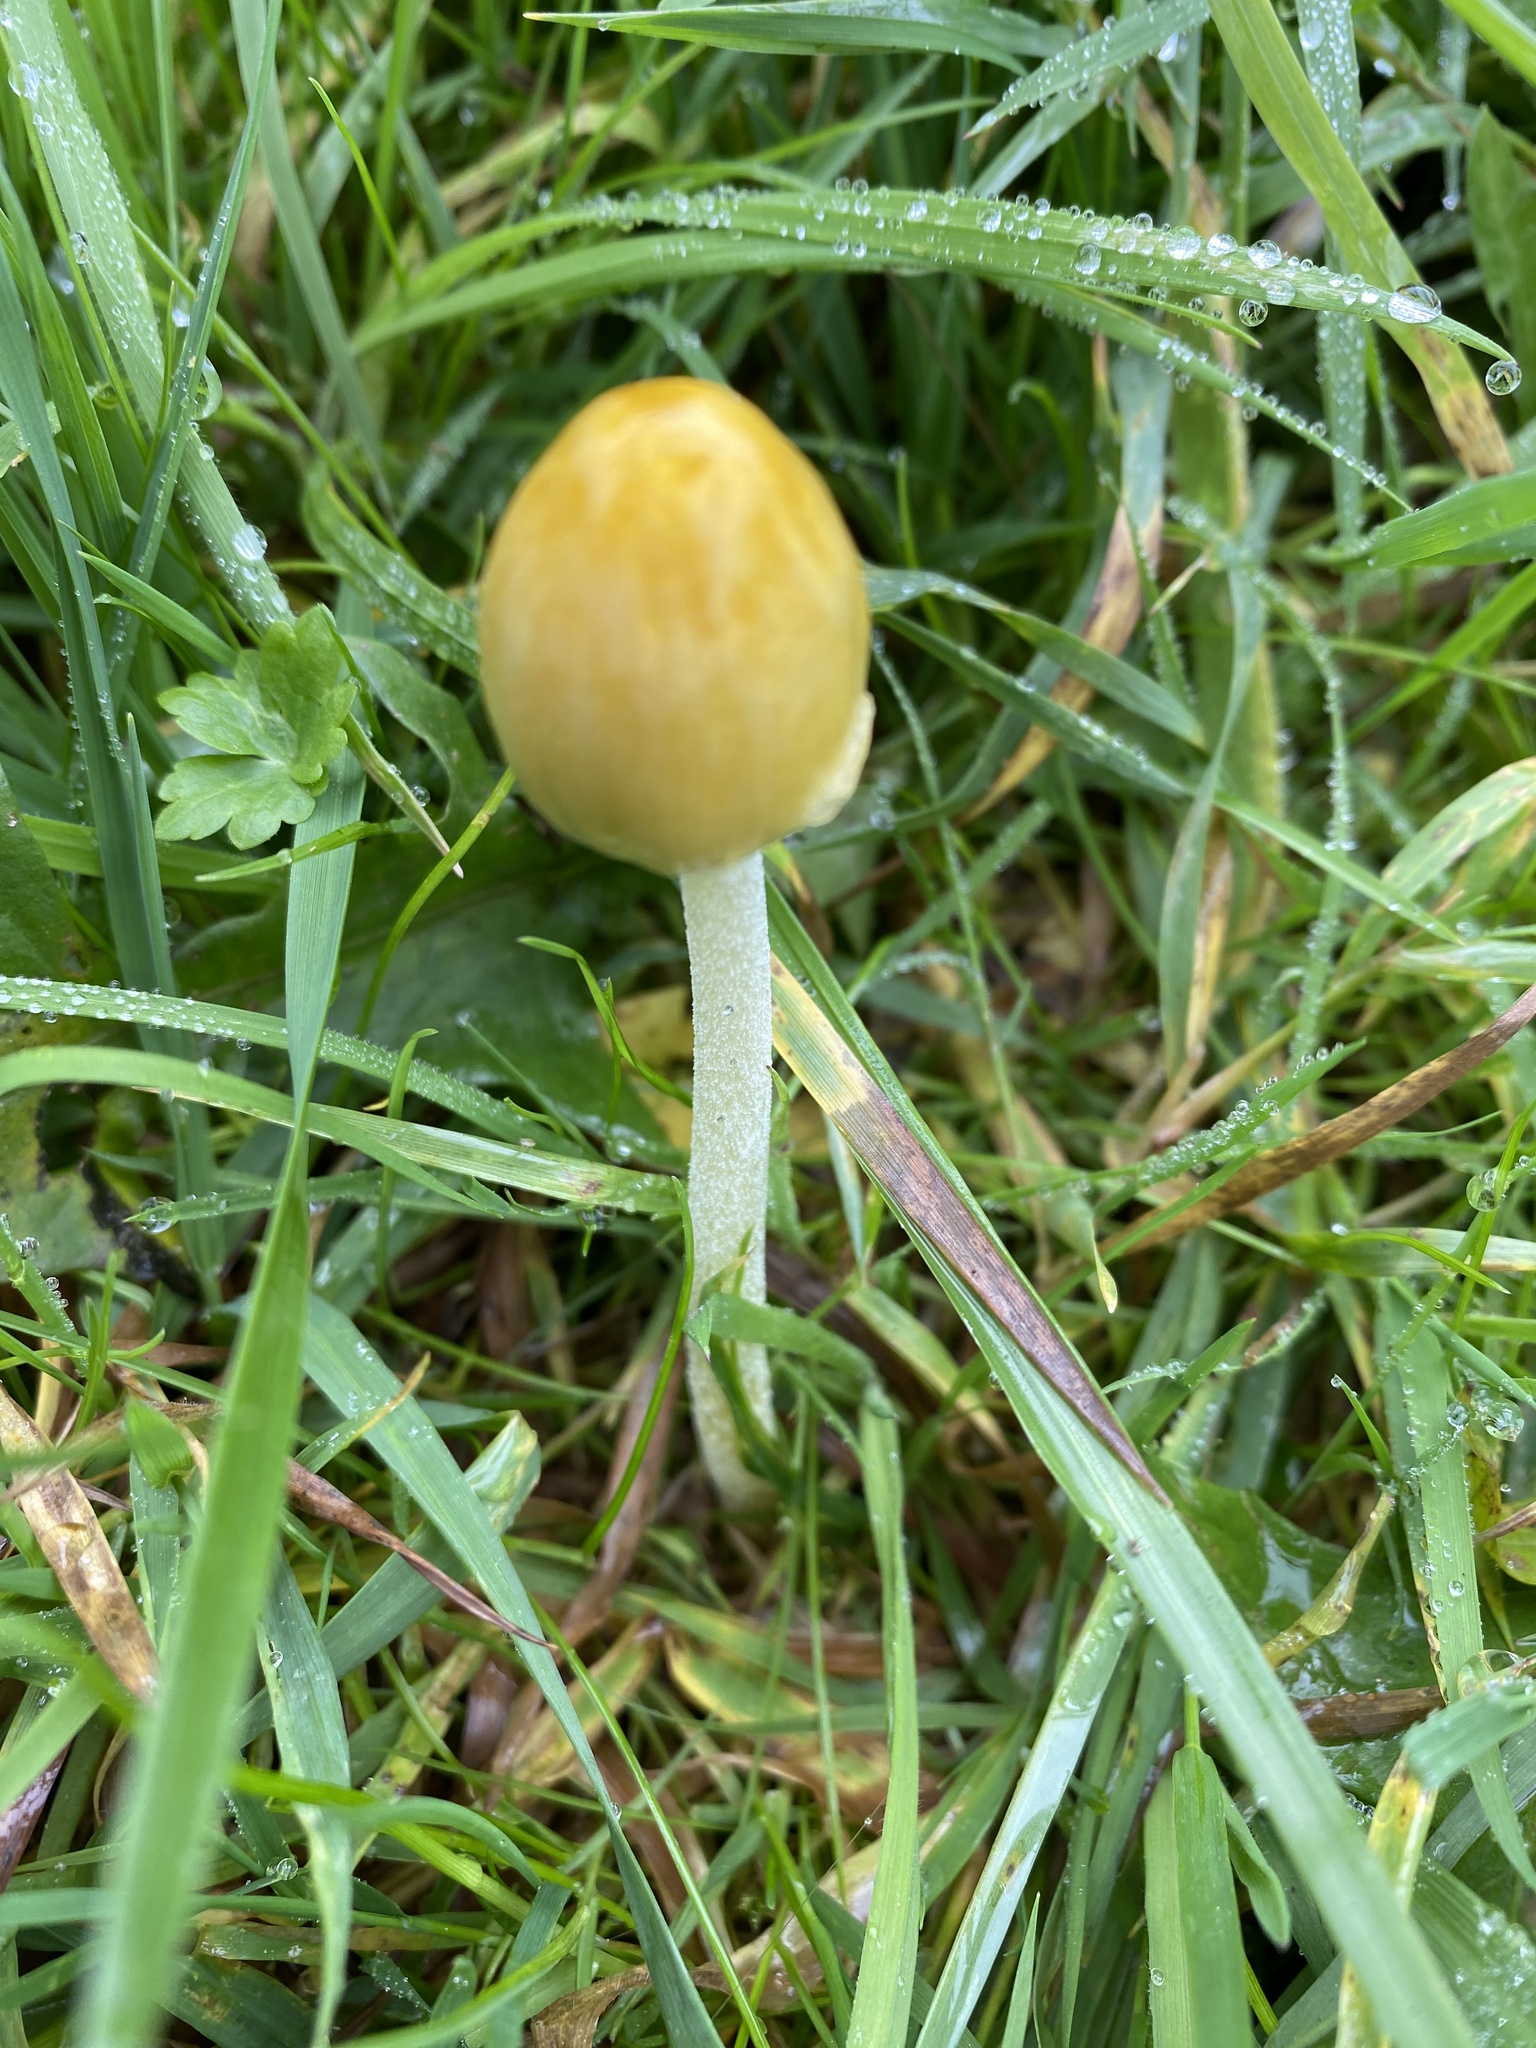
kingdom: Fungi
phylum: Basidiomycota
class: Agaricomycetes
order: Agaricales
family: Bolbitiaceae
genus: Bolbitius
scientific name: Bolbitius titubans
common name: Yellow fieldcap
